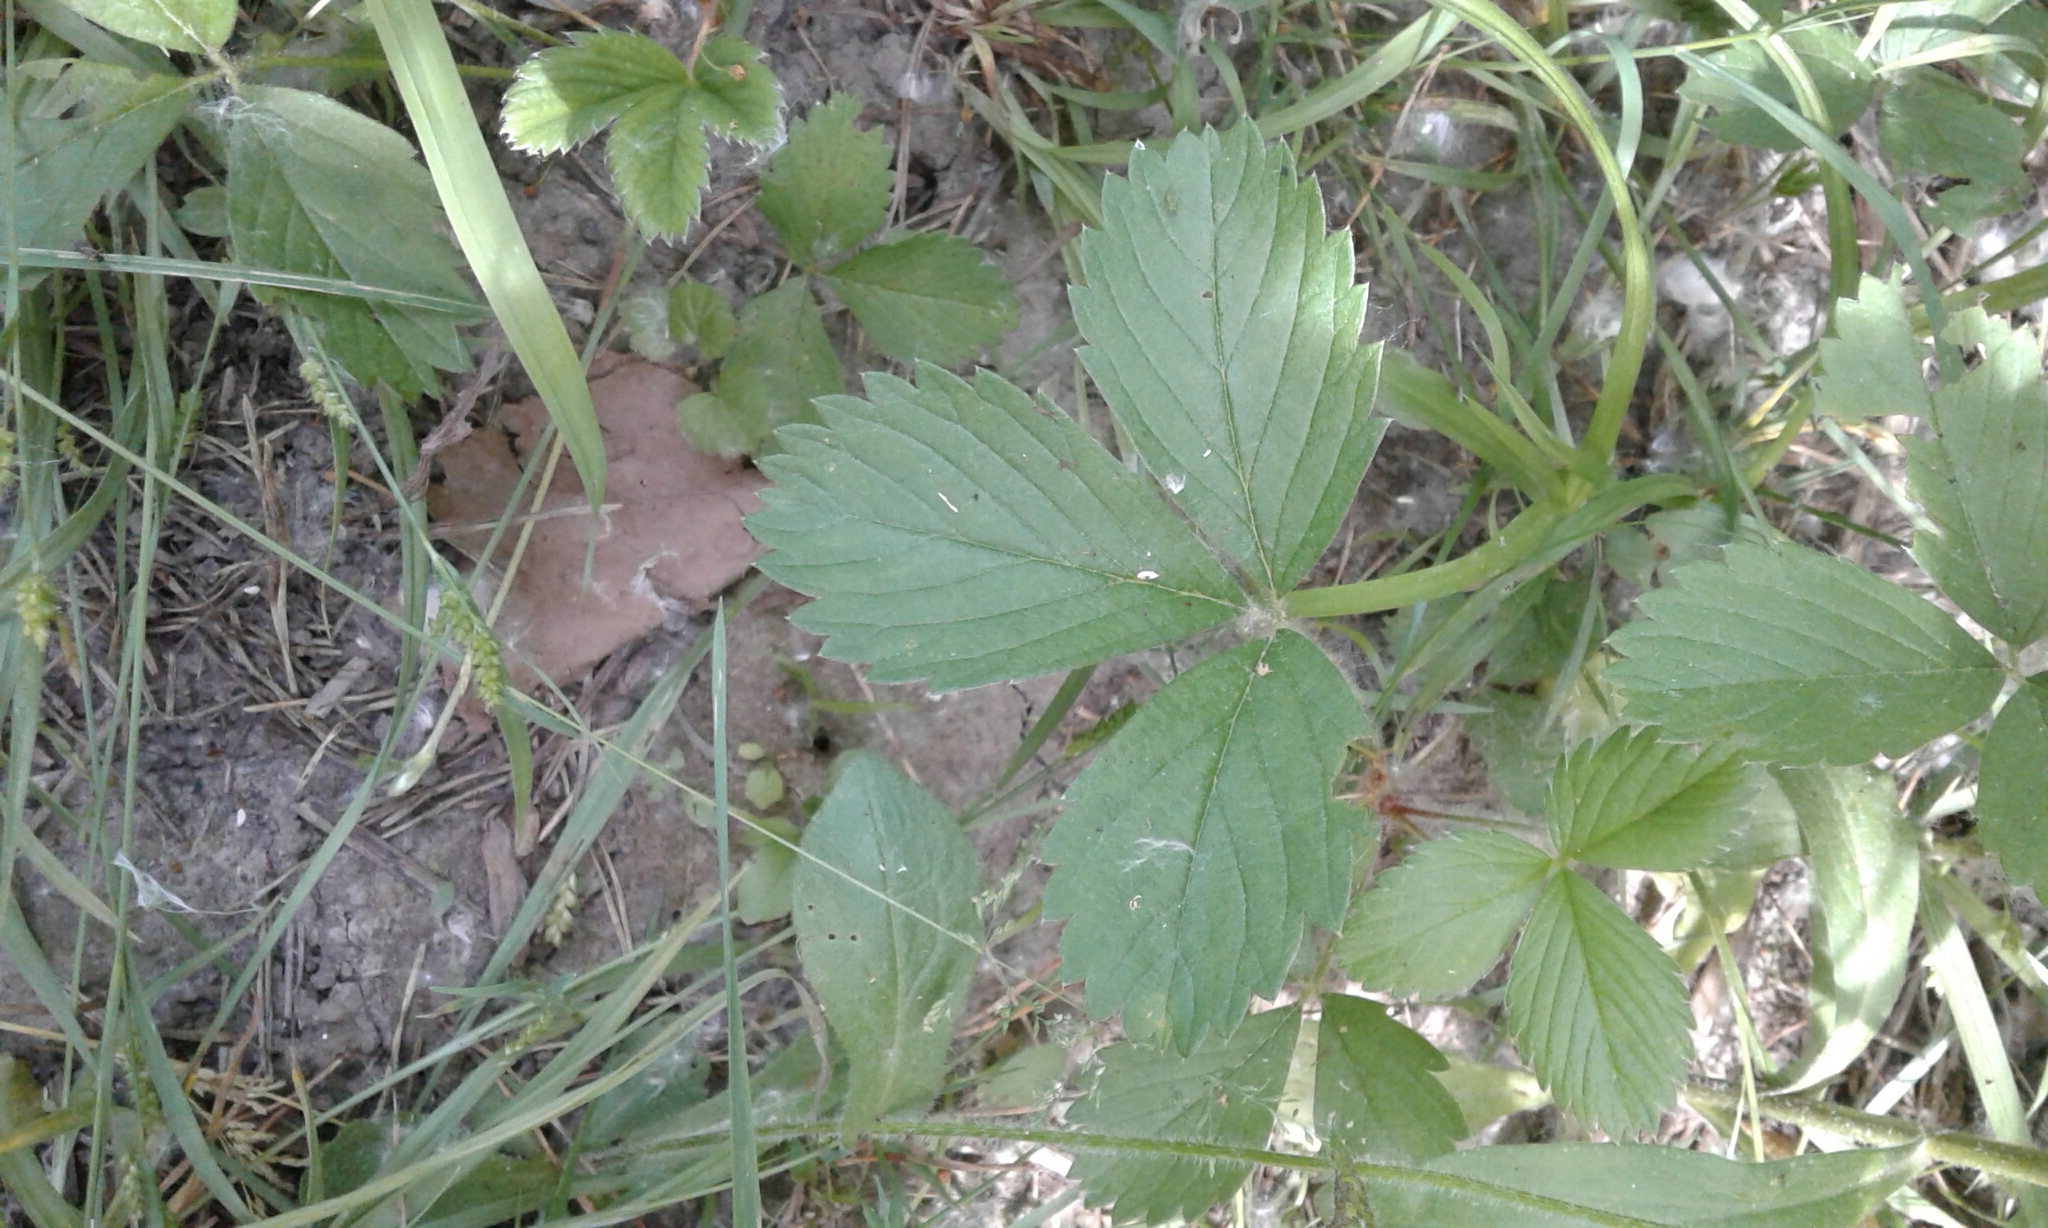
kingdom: Plantae
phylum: Tracheophyta
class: Magnoliopsida
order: Rosales
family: Rosaceae
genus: Fragaria
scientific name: Fragaria vesca
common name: Wild strawberry
